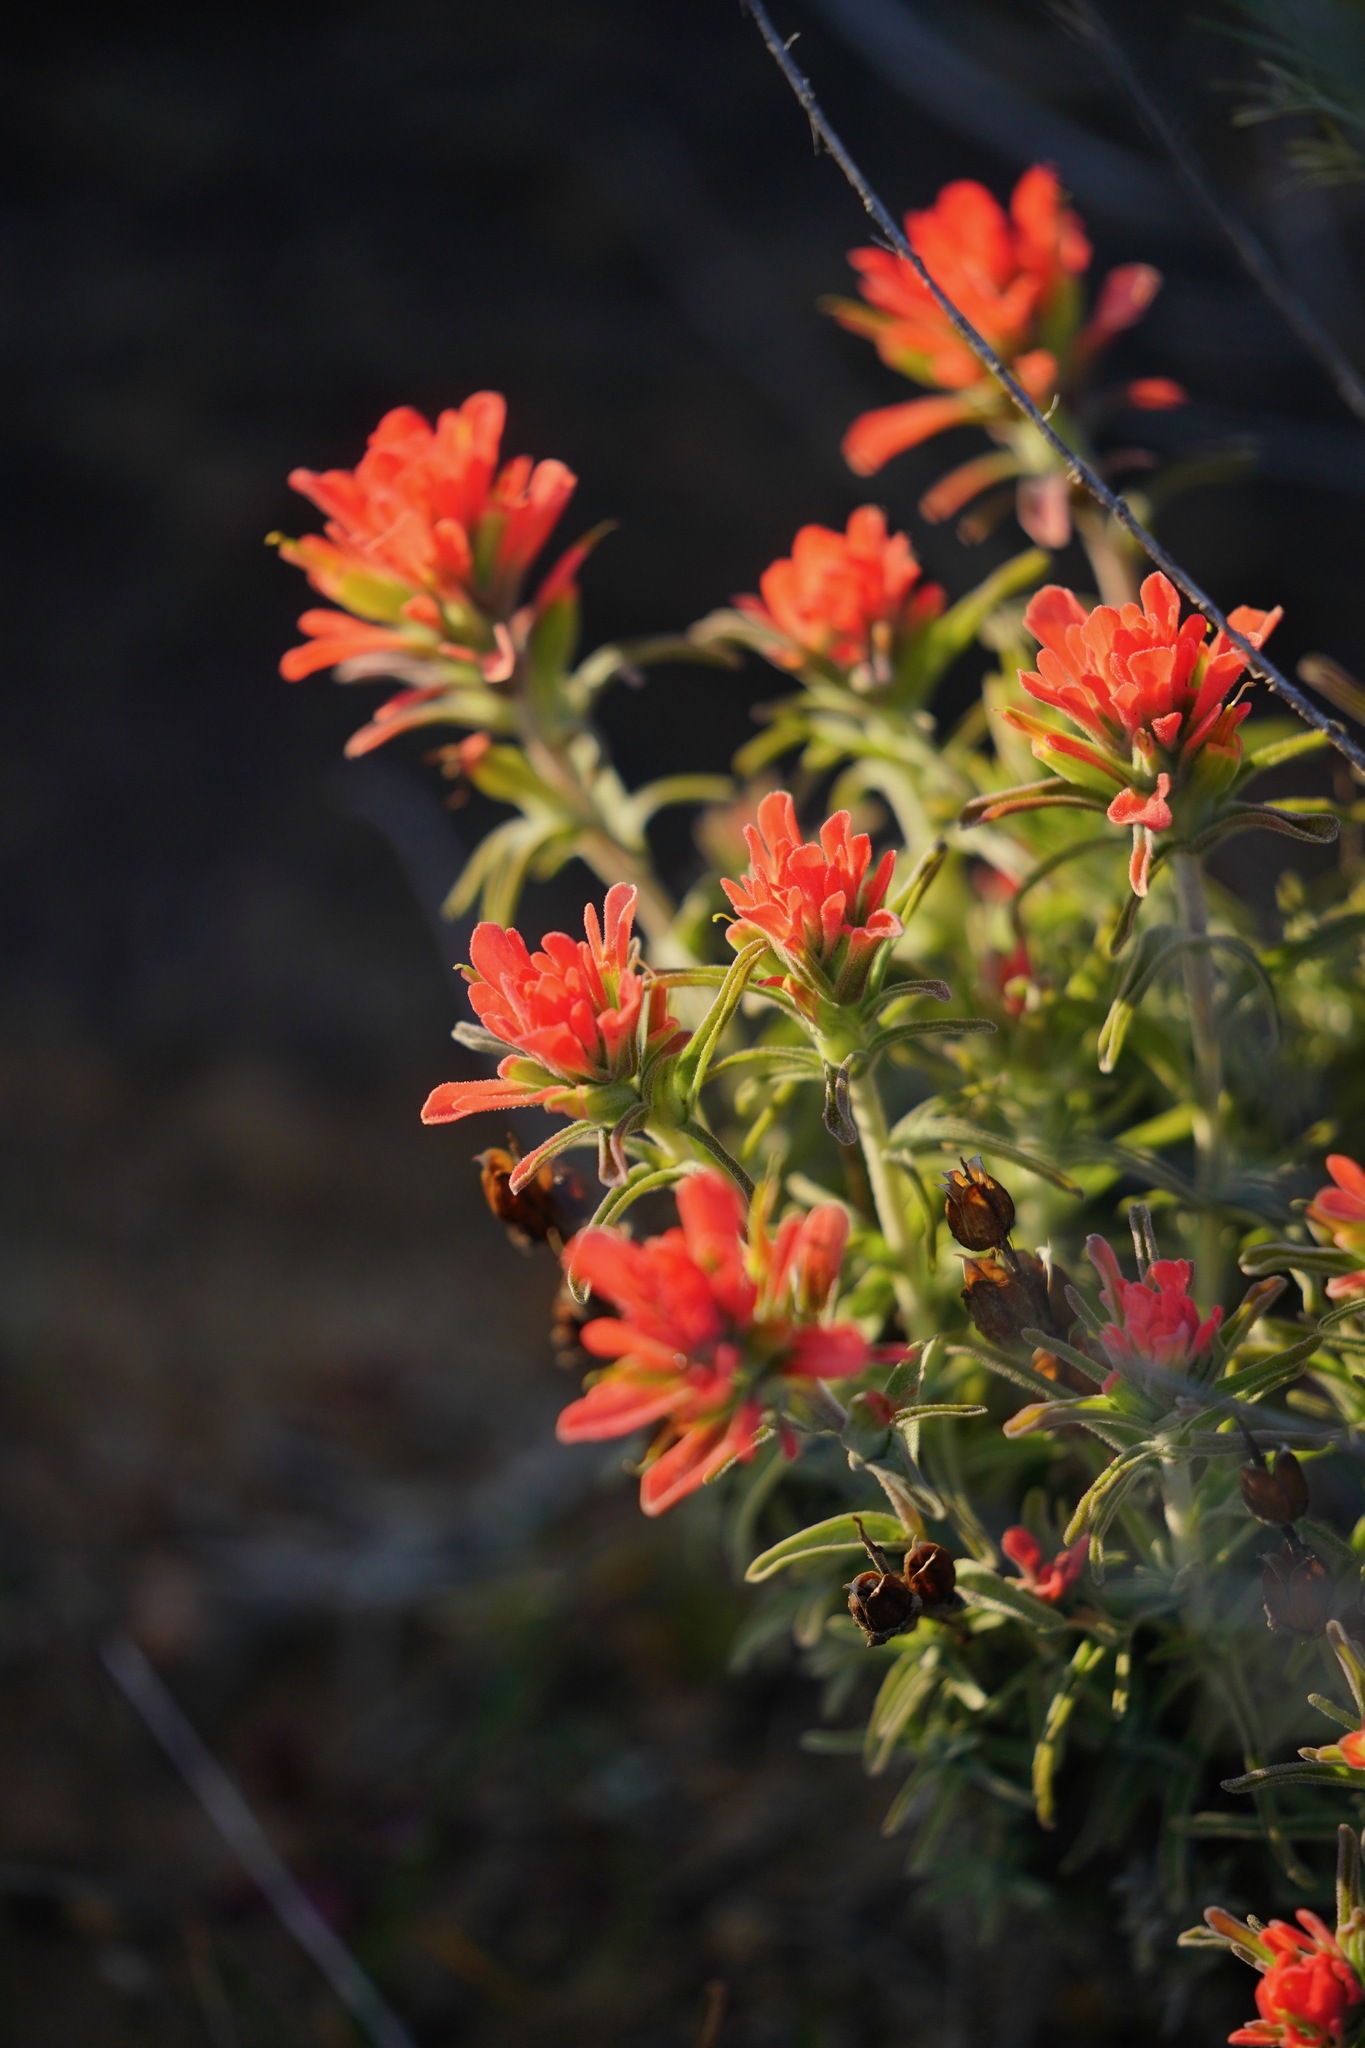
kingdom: Plantae
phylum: Tracheophyta
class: Magnoliopsida
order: Lamiales
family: Orobanchaceae
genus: Castilleja
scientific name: Castilleja foliolosa
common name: Woolly indian paintbrush
